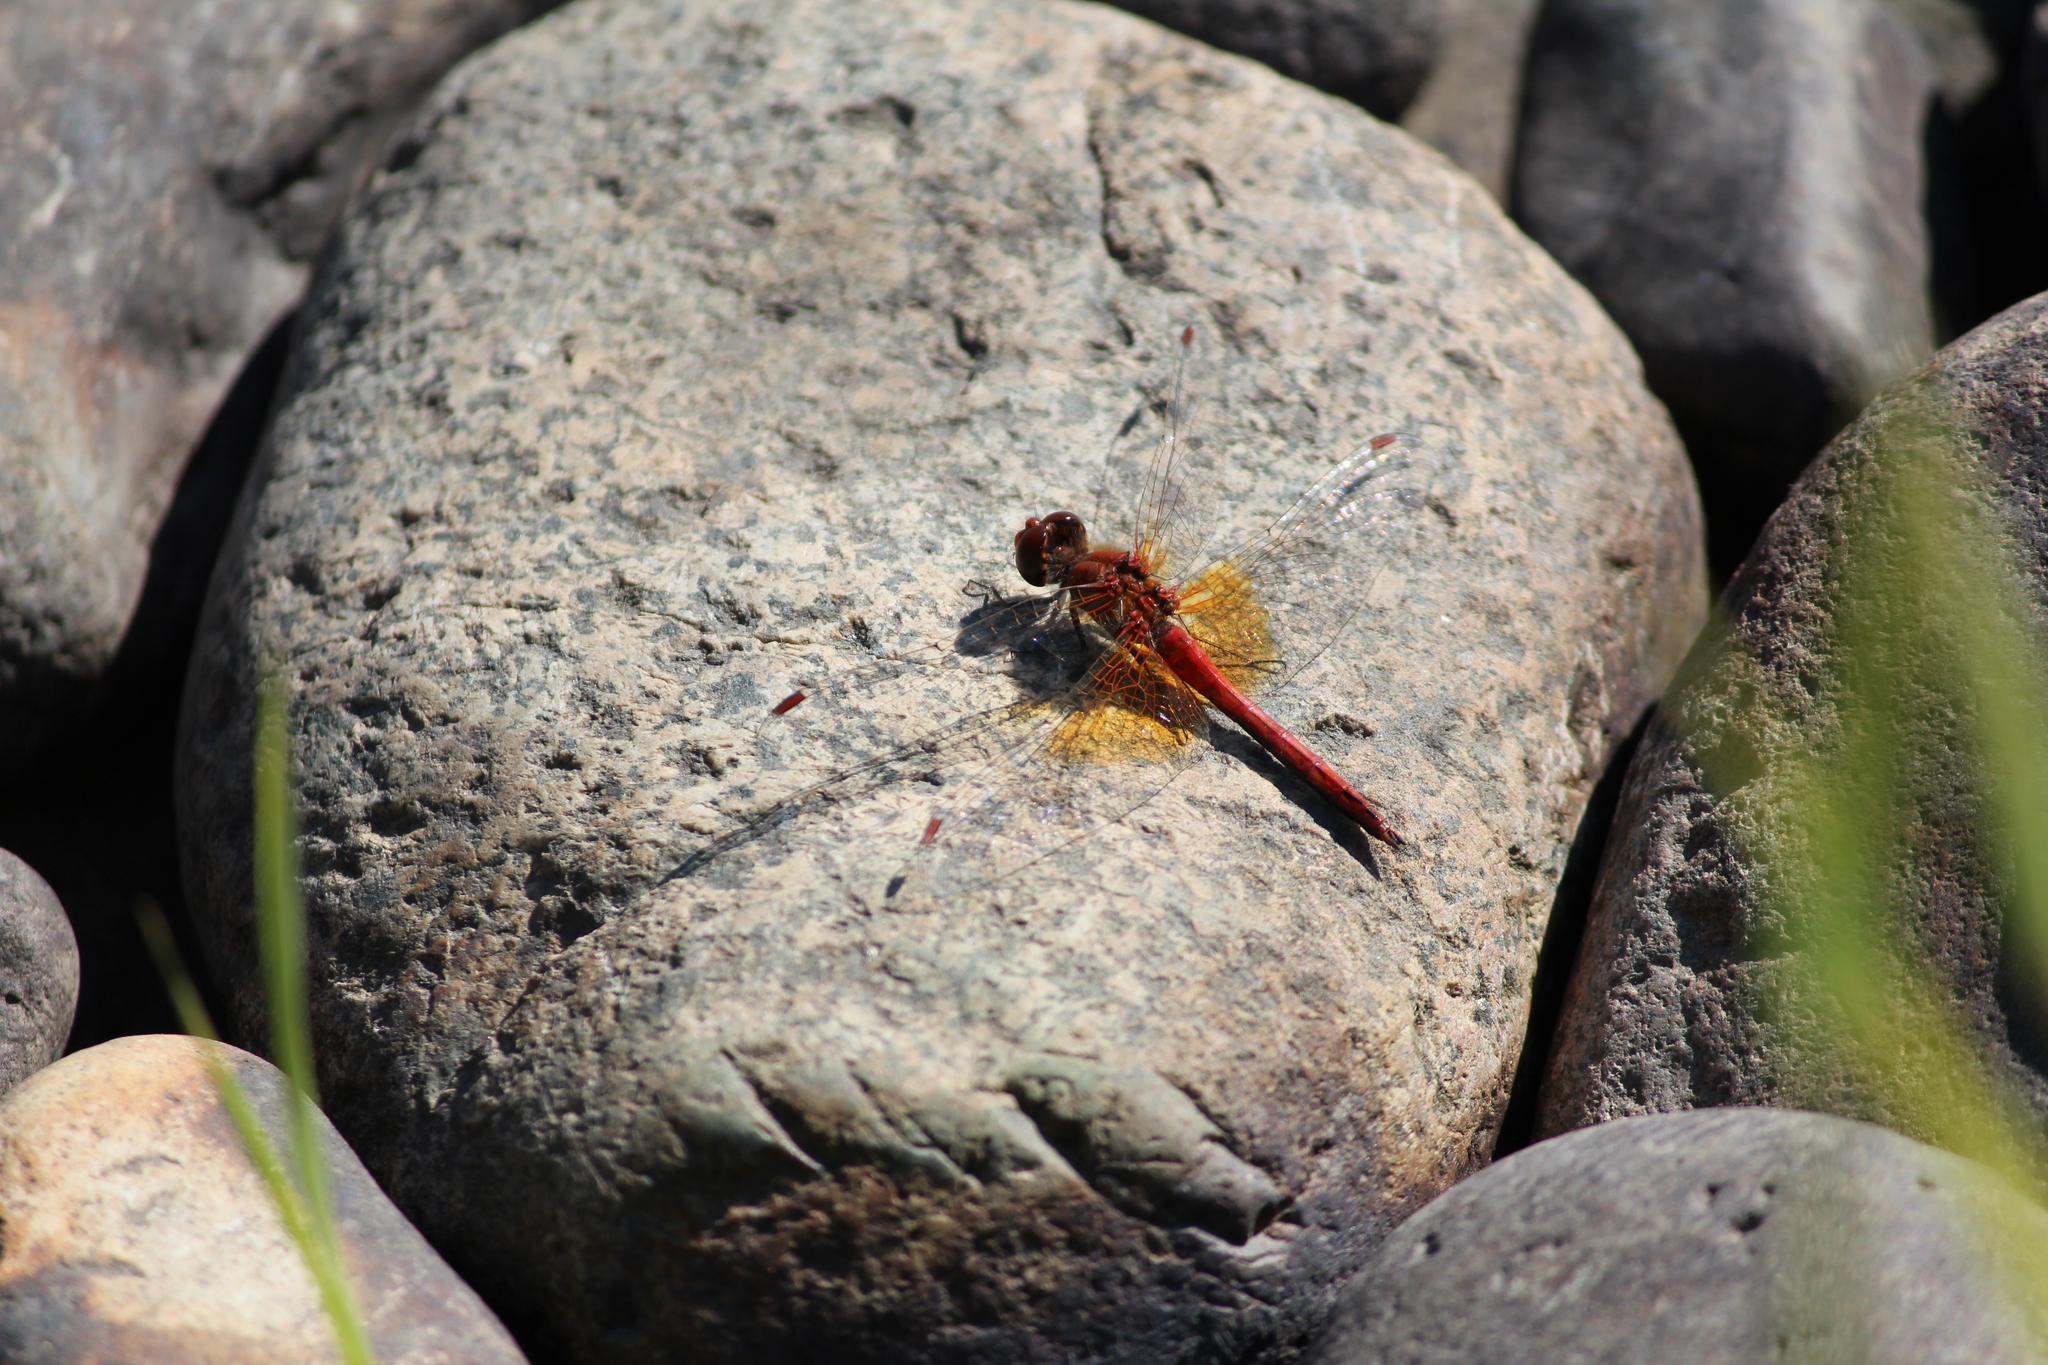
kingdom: Animalia
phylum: Arthropoda
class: Insecta
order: Odonata
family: Libellulidae
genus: Sympetrum
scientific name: Sympetrum flaveolum
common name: Yellow-winged darter
